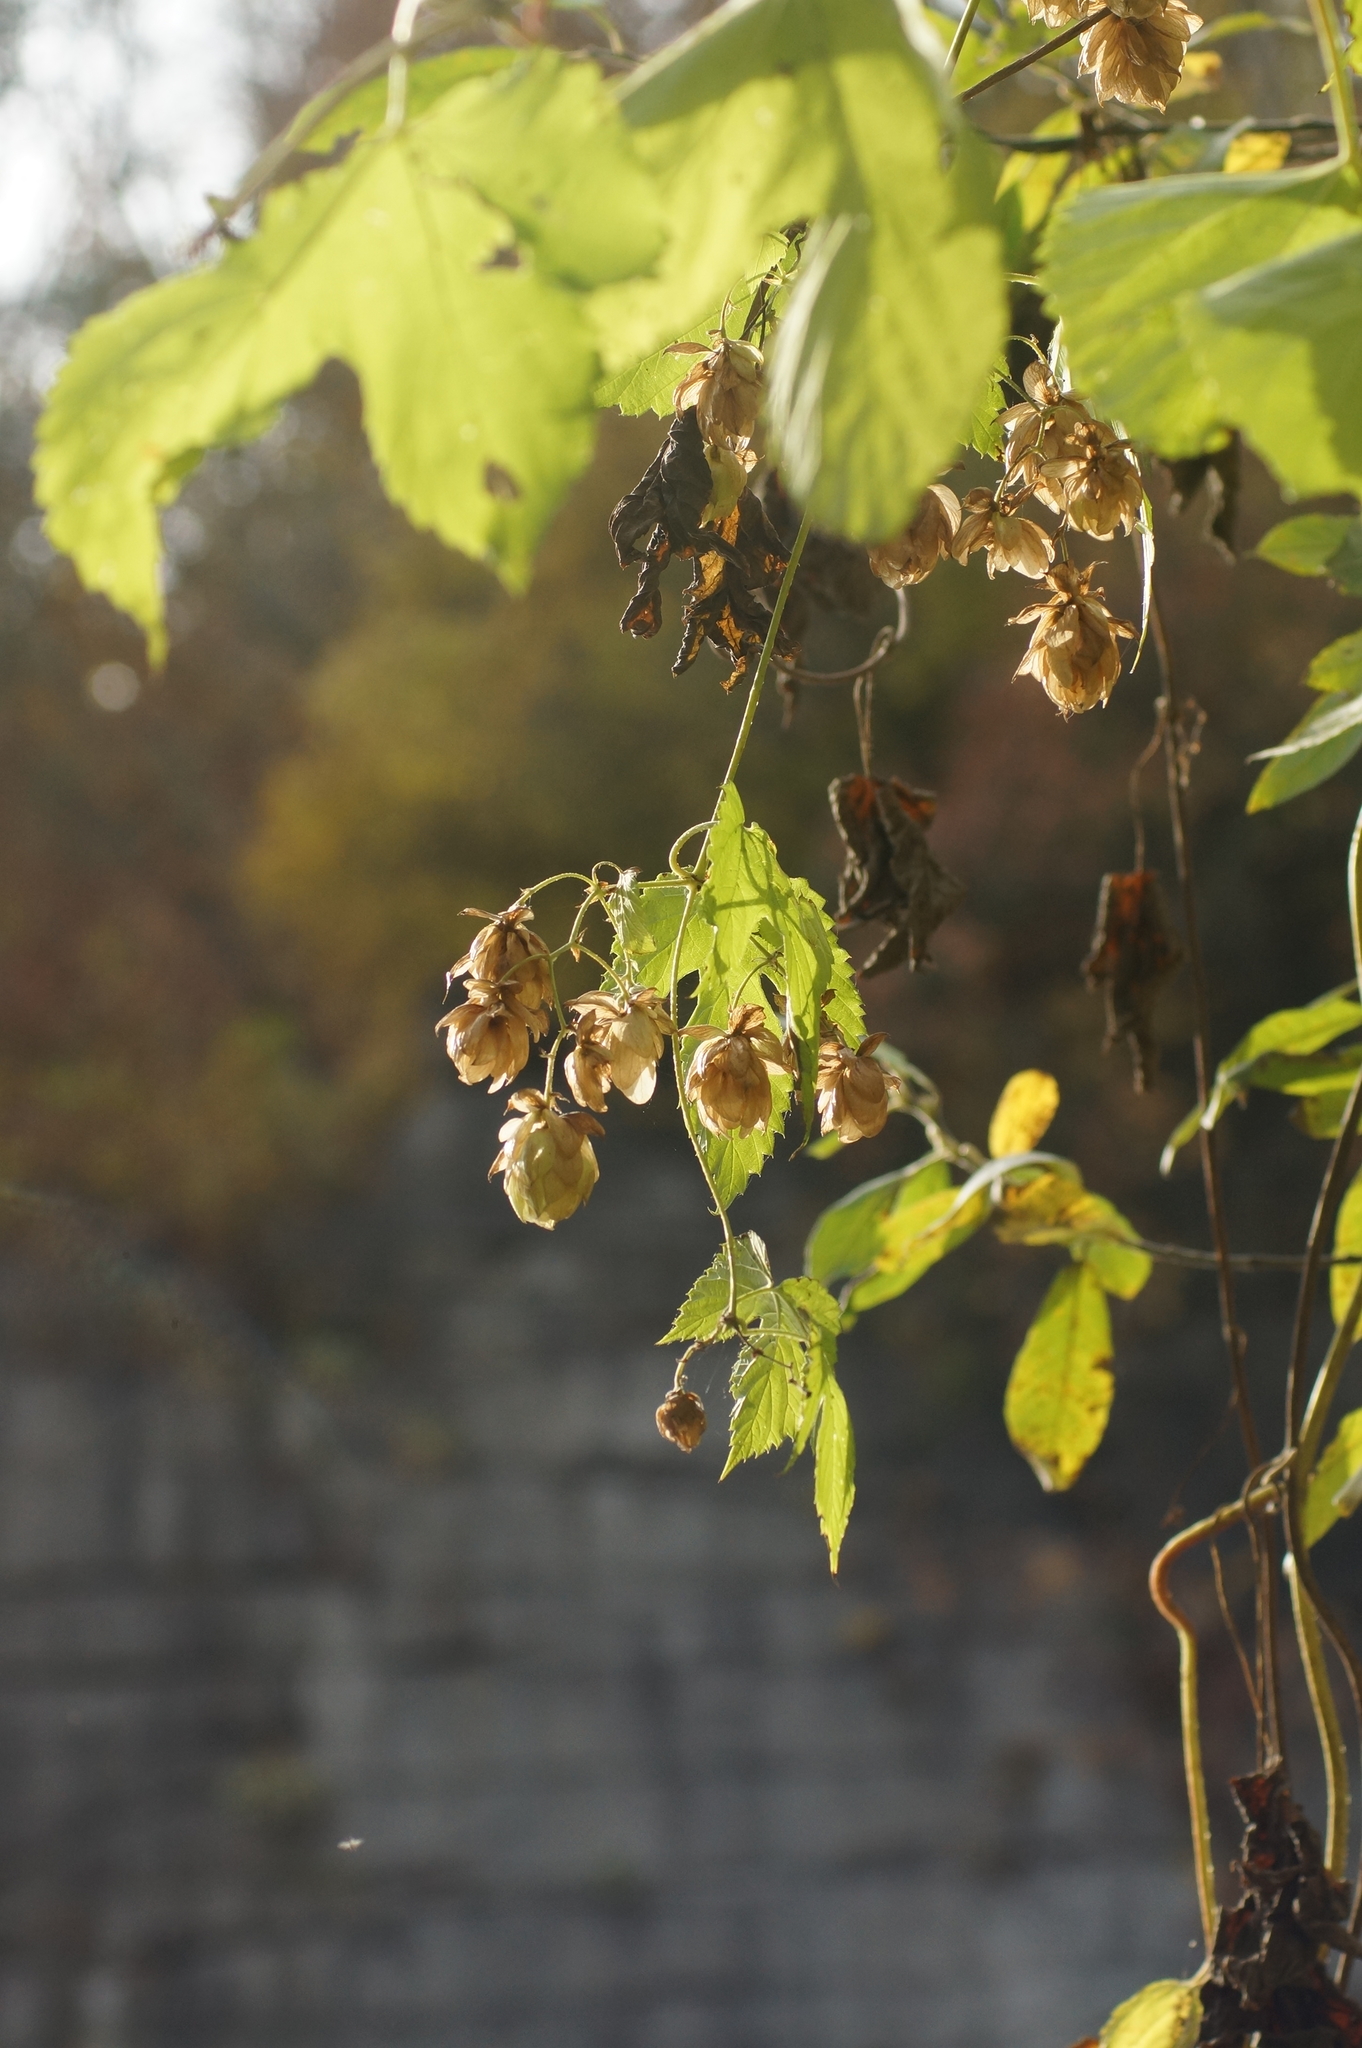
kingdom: Plantae
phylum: Tracheophyta
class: Magnoliopsida
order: Rosales
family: Cannabaceae
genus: Humulus
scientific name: Humulus lupulus
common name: Hop
